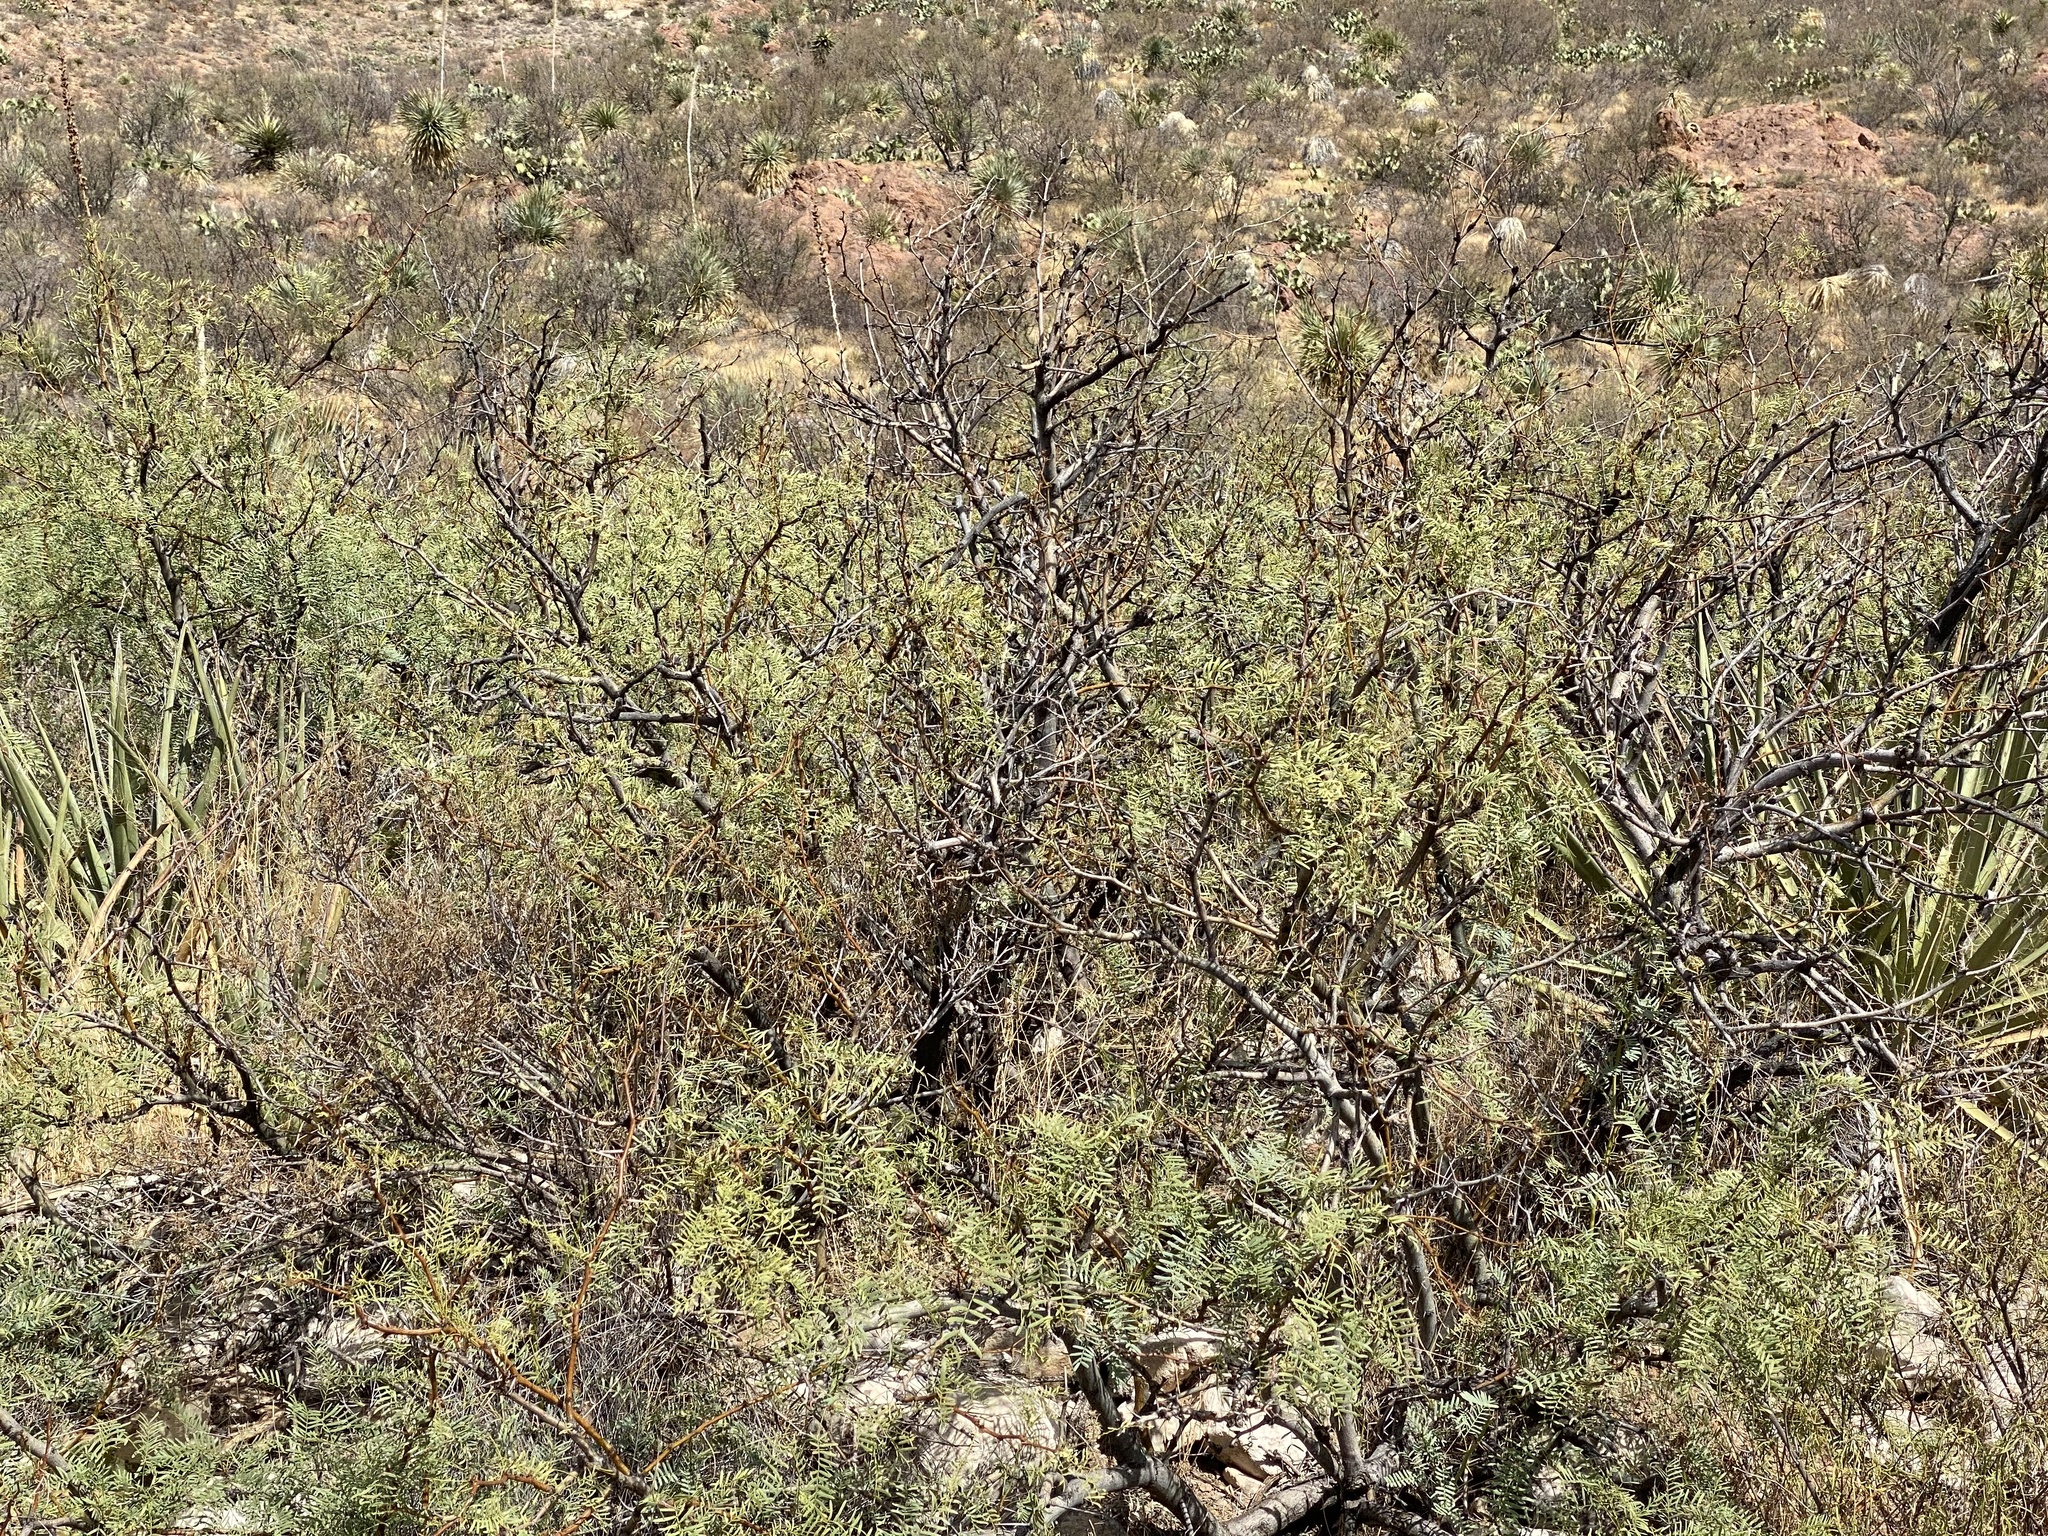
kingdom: Plantae
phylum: Tracheophyta
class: Magnoliopsida
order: Fabales
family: Fabaceae
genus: Prosopis
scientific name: Prosopis glandulosa
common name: Honey mesquite
